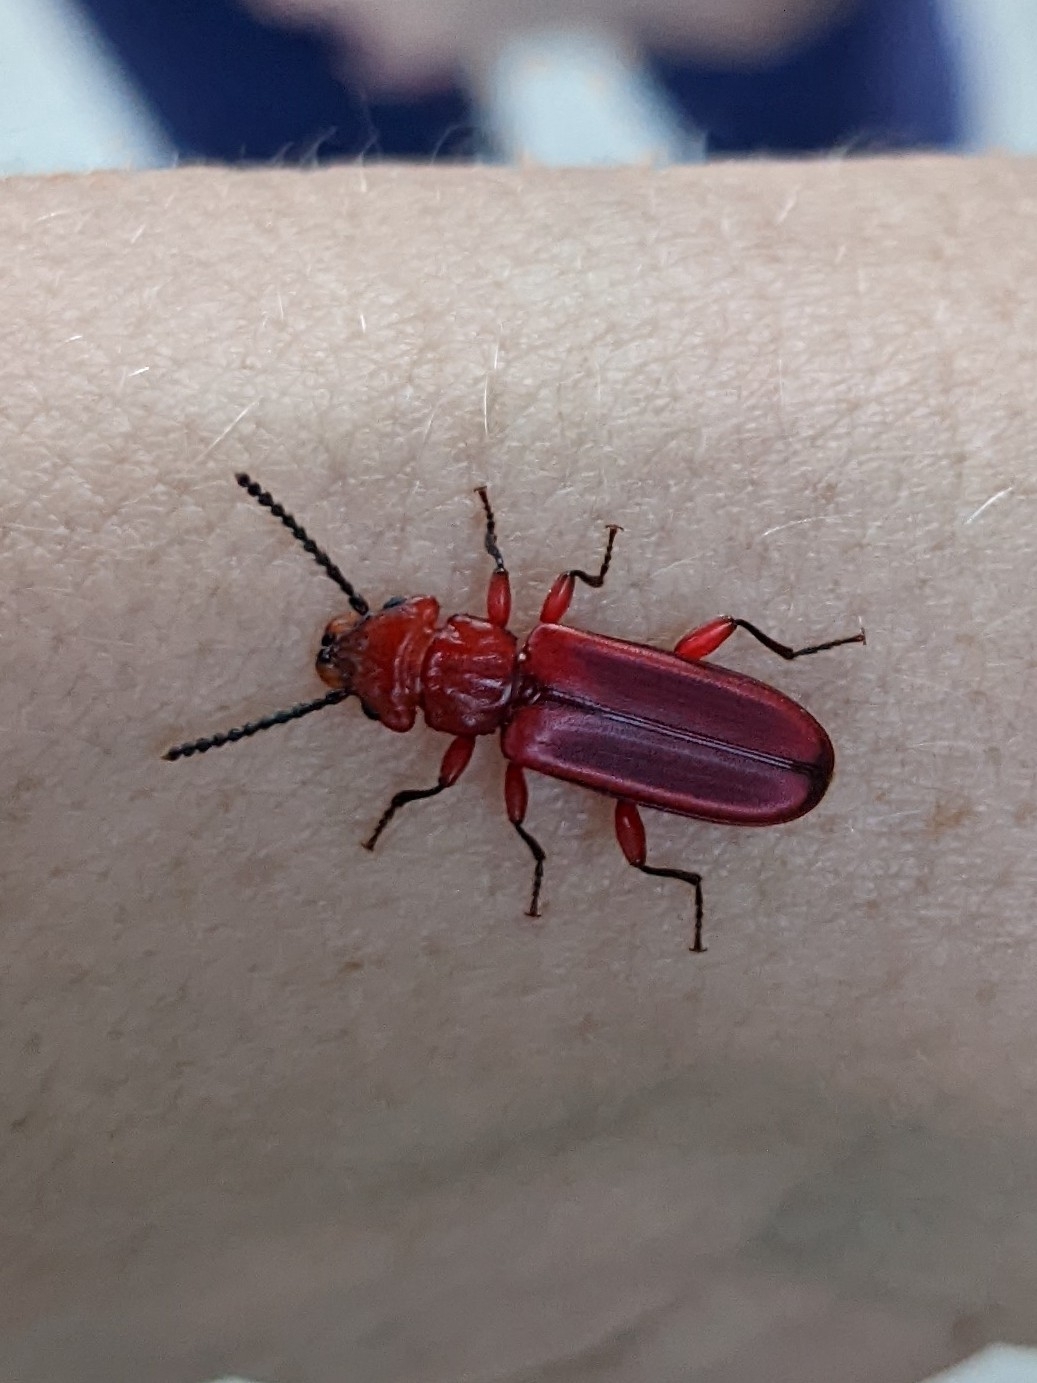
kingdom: Animalia
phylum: Arthropoda
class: Insecta
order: Coleoptera
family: Cucujidae
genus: Cucujus
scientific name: Cucujus clavipes
